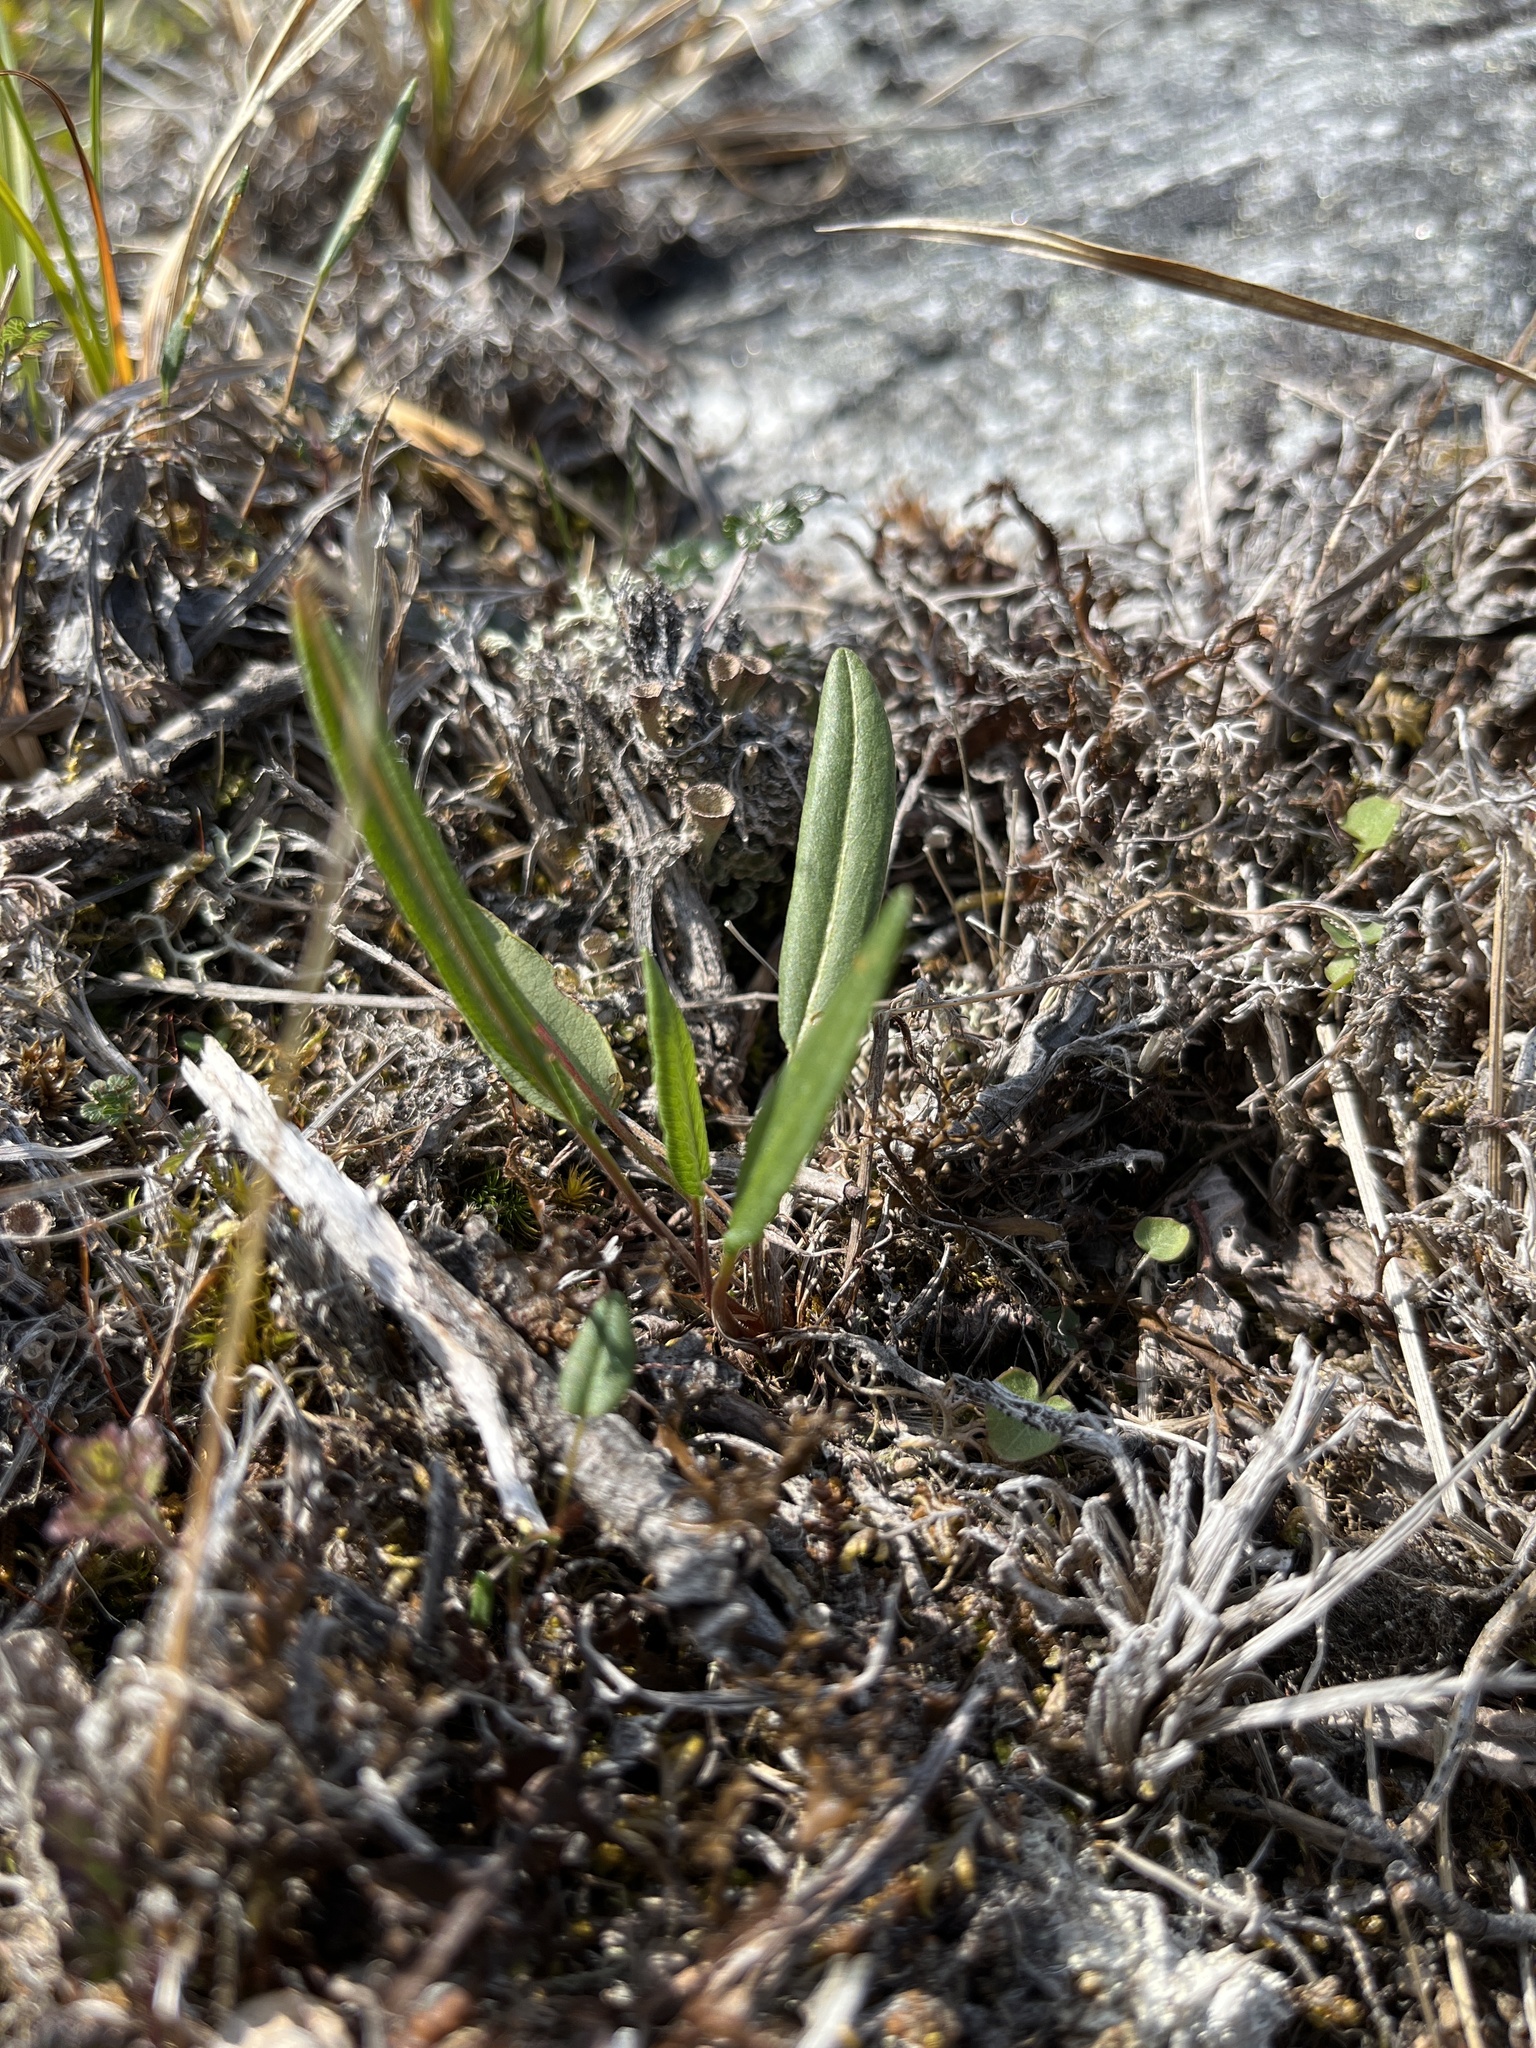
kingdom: Plantae
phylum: Tracheophyta
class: Magnoliopsida
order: Caryophyllales
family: Polygonaceae
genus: Bistorta
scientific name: Bistorta vivipara
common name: Alpine bistort
